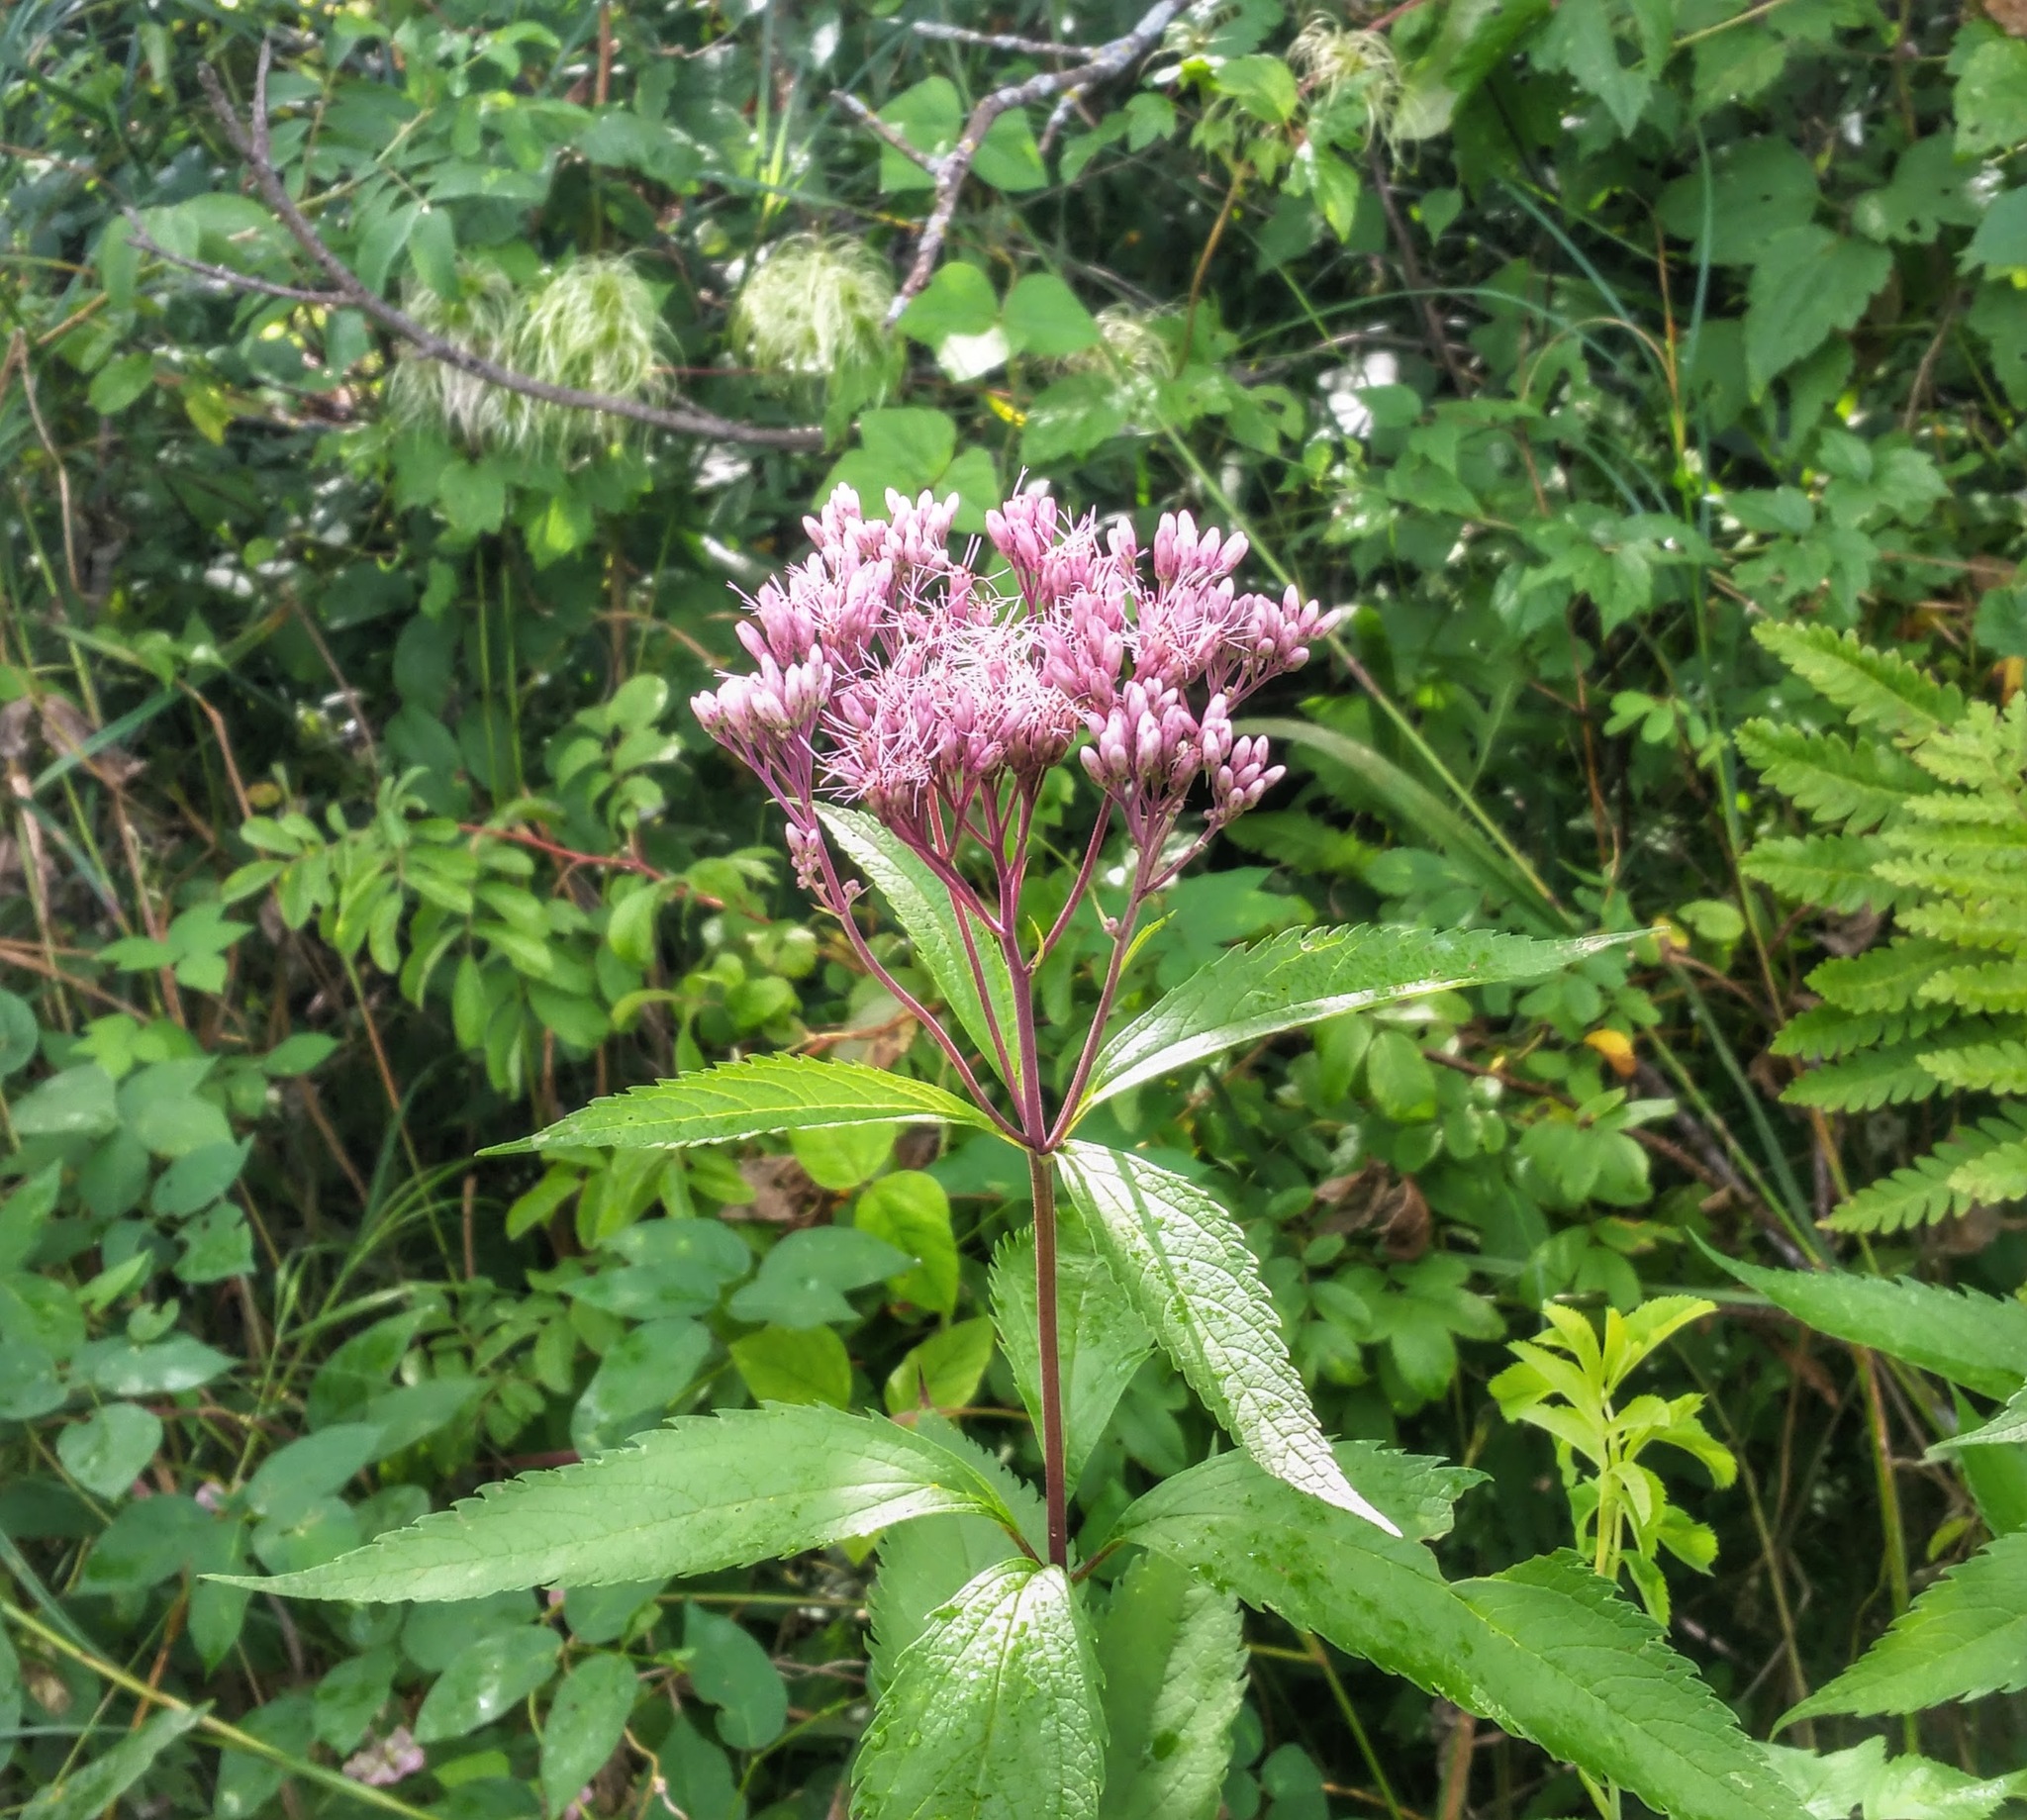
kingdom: Plantae
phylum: Tracheophyta
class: Magnoliopsida
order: Asterales
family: Asteraceae
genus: Eutrochium
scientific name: Eutrochium maculatum
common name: Spotted joe pye weed
